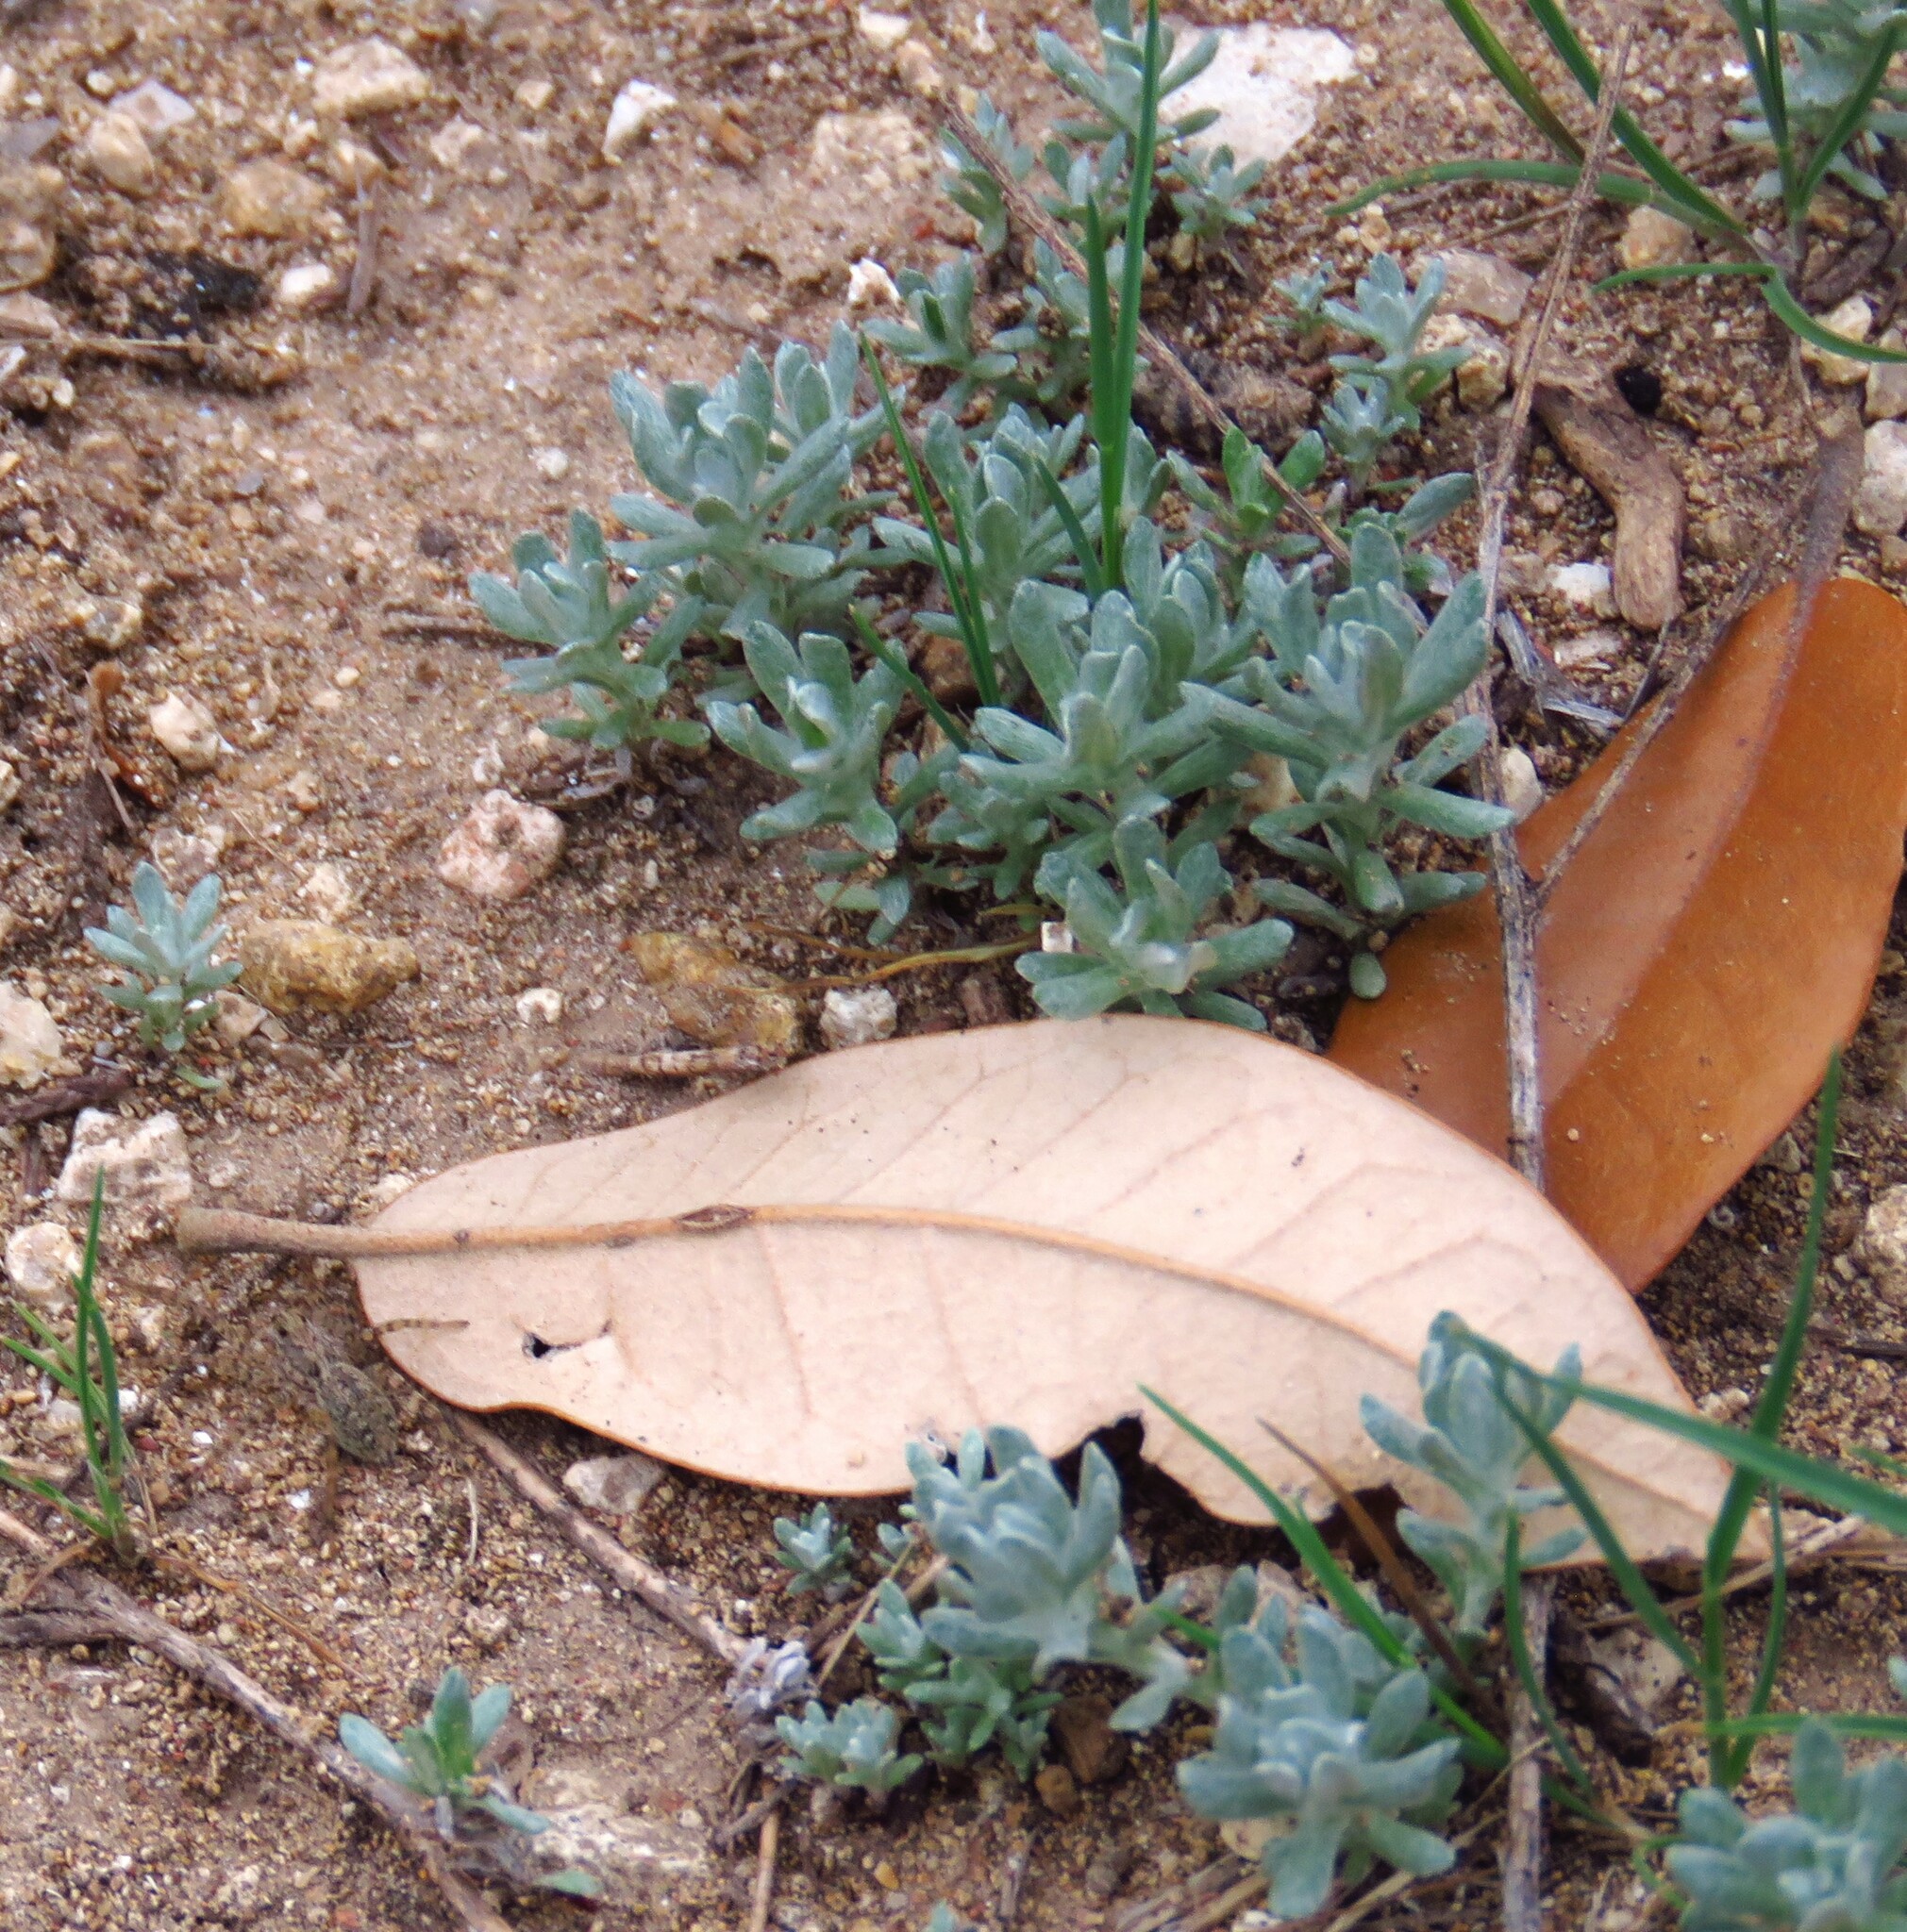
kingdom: Plantae
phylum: Tracheophyta
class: Magnoliopsida
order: Asterales
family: Asteraceae
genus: Diaperia
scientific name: Diaperia prolifera
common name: Big-head rabbit-tobacco
